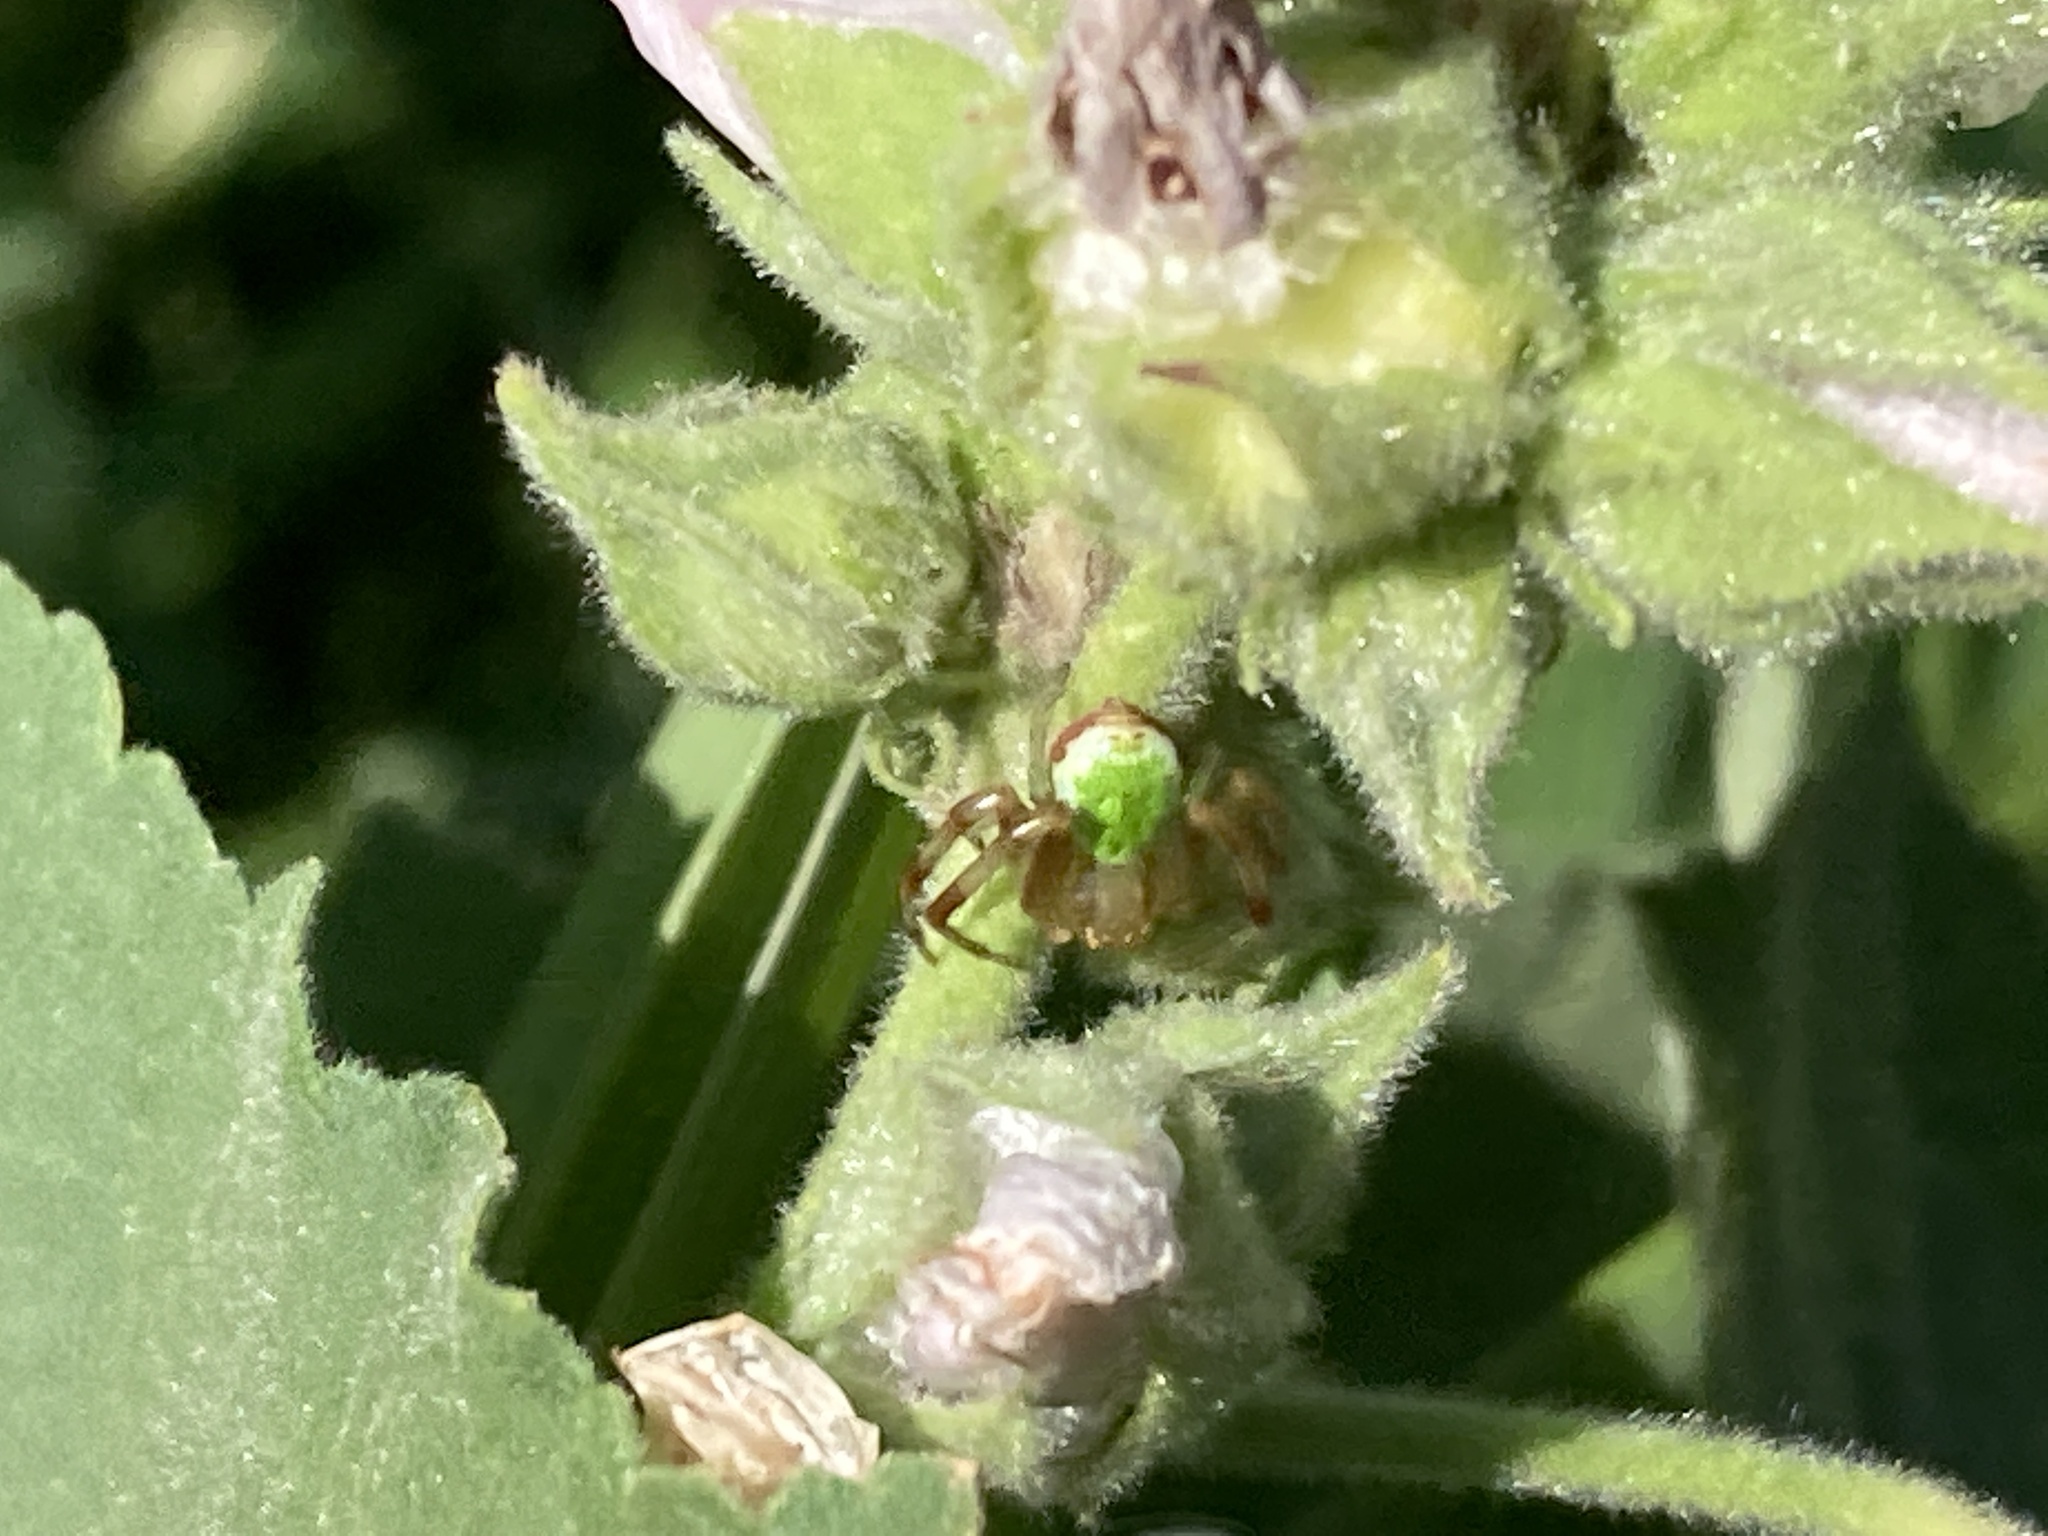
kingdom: Animalia
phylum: Arthropoda
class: Arachnida
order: Araneae
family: Thomisidae
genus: Ebrechtella
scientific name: Ebrechtella tricuspidata
